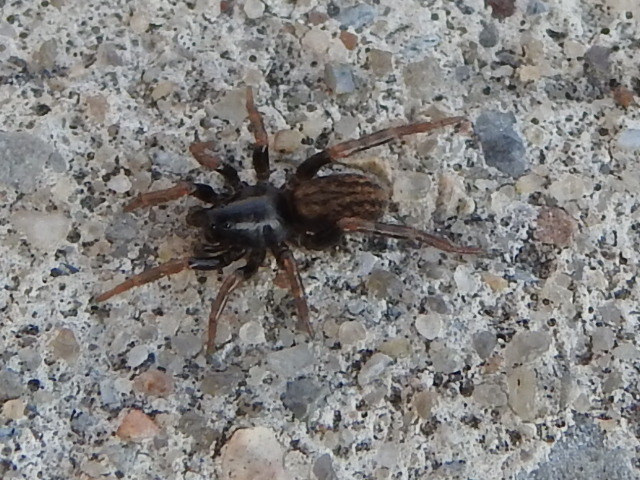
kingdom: Animalia
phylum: Arthropoda
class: Arachnida
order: Araneae
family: Lycosidae
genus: Allocosa
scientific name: Allocosa funerea
